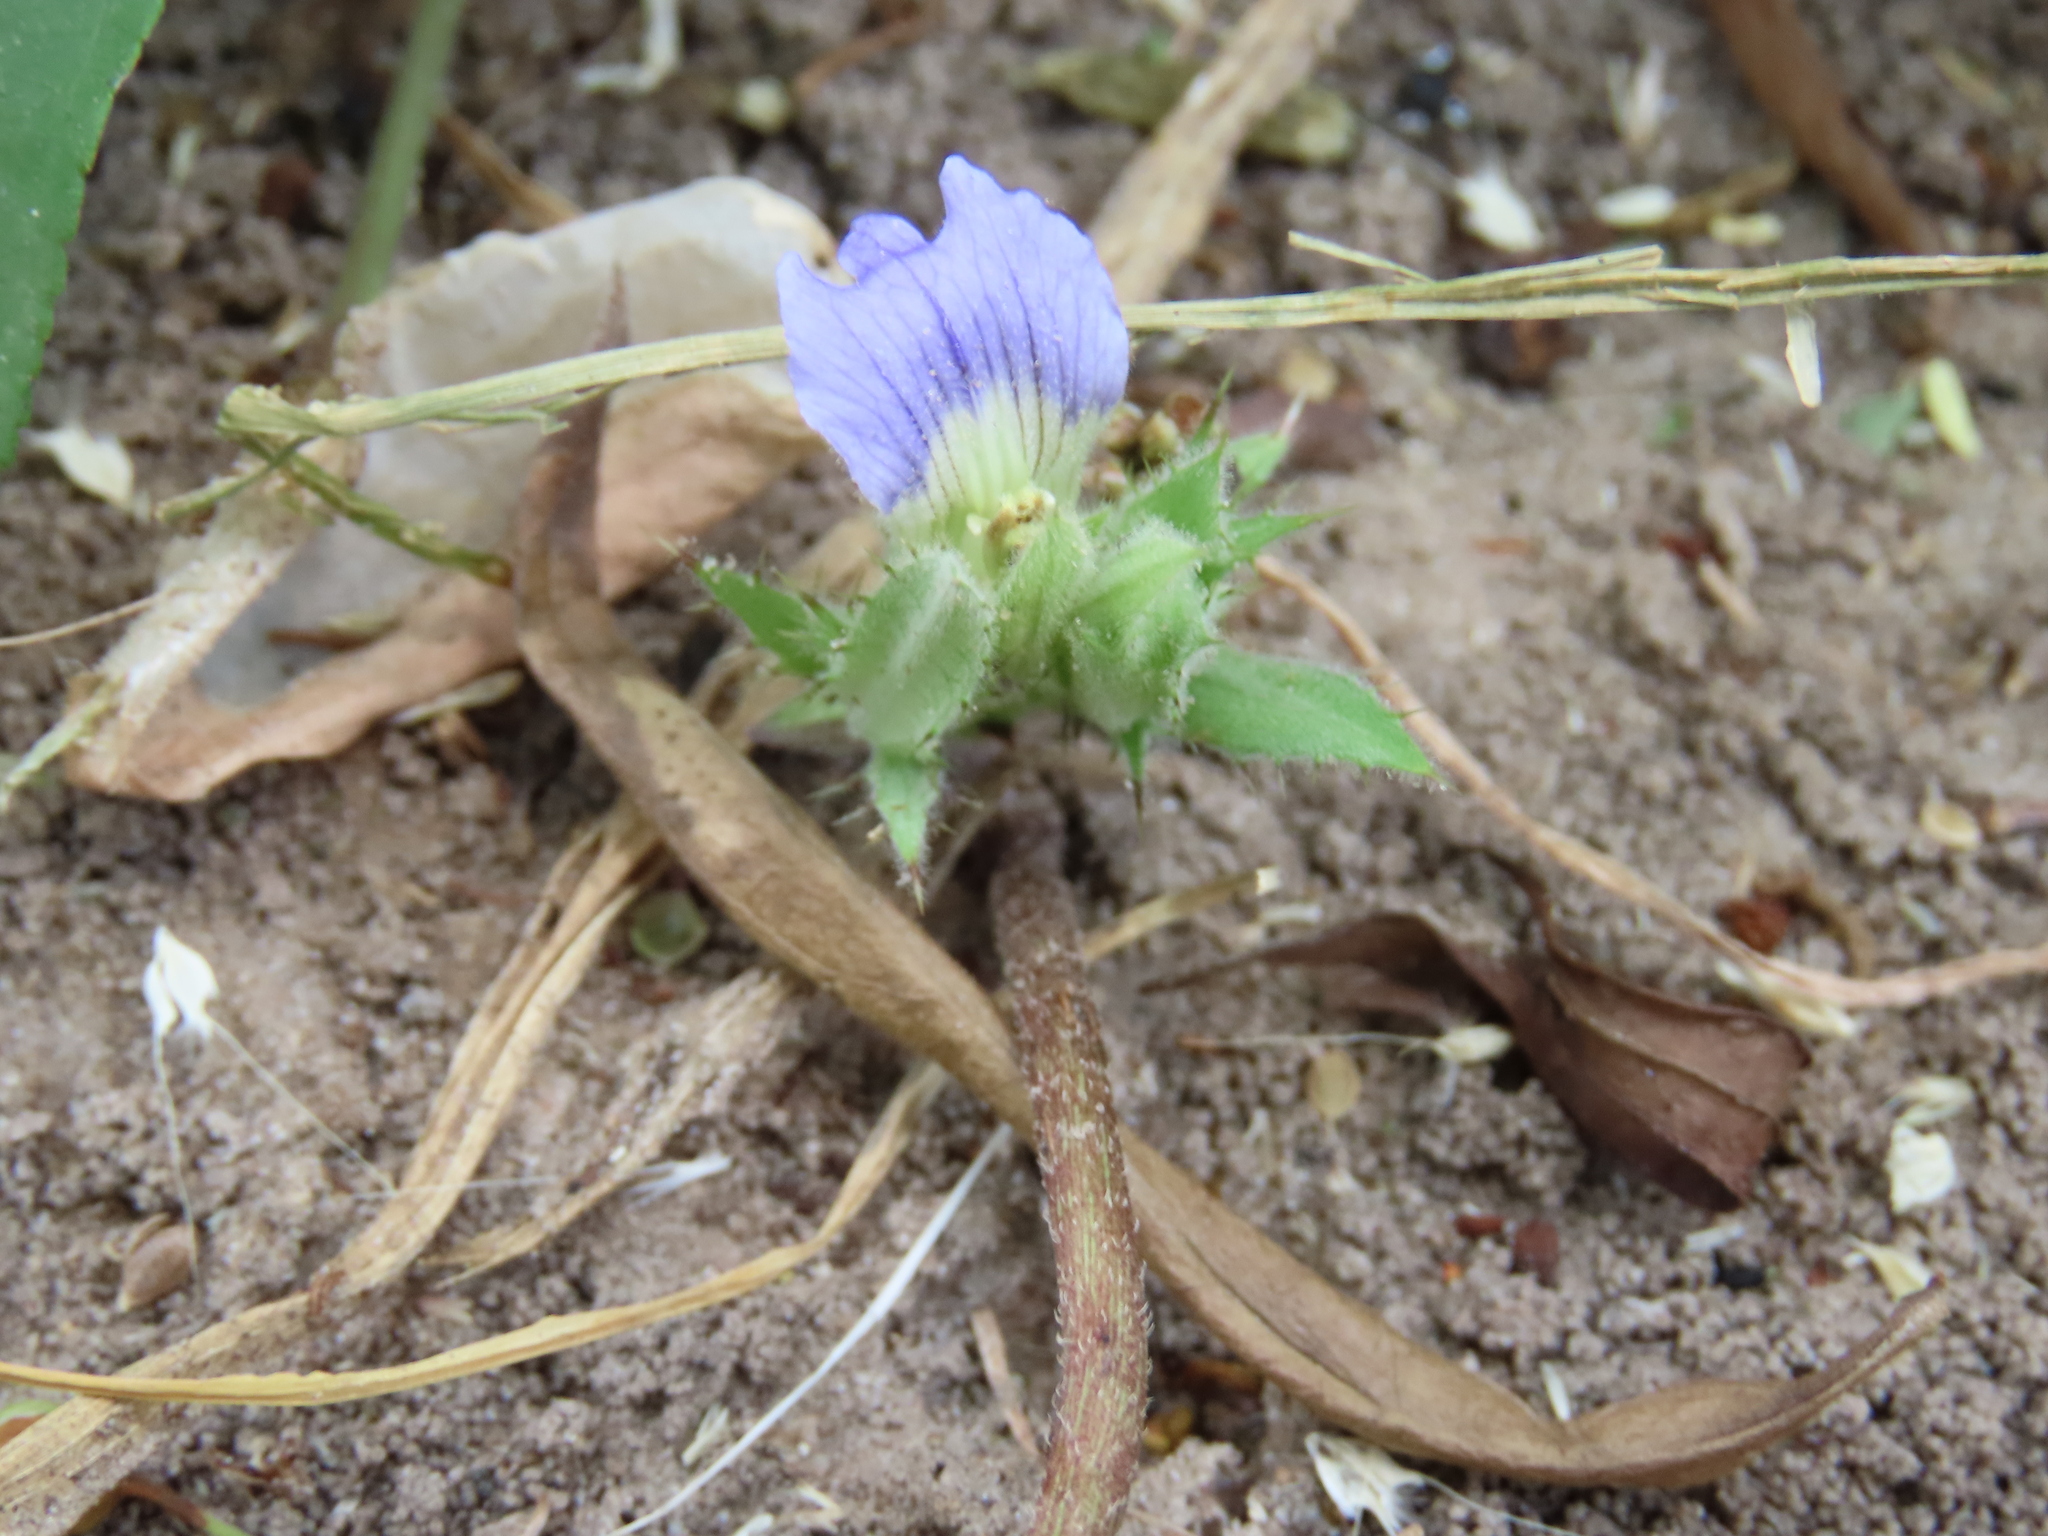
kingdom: Plantae
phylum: Tracheophyta
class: Magnoliopsida
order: Lamiales
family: Acanthaceae
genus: Blepharis
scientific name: Blepharis tenuiramea
